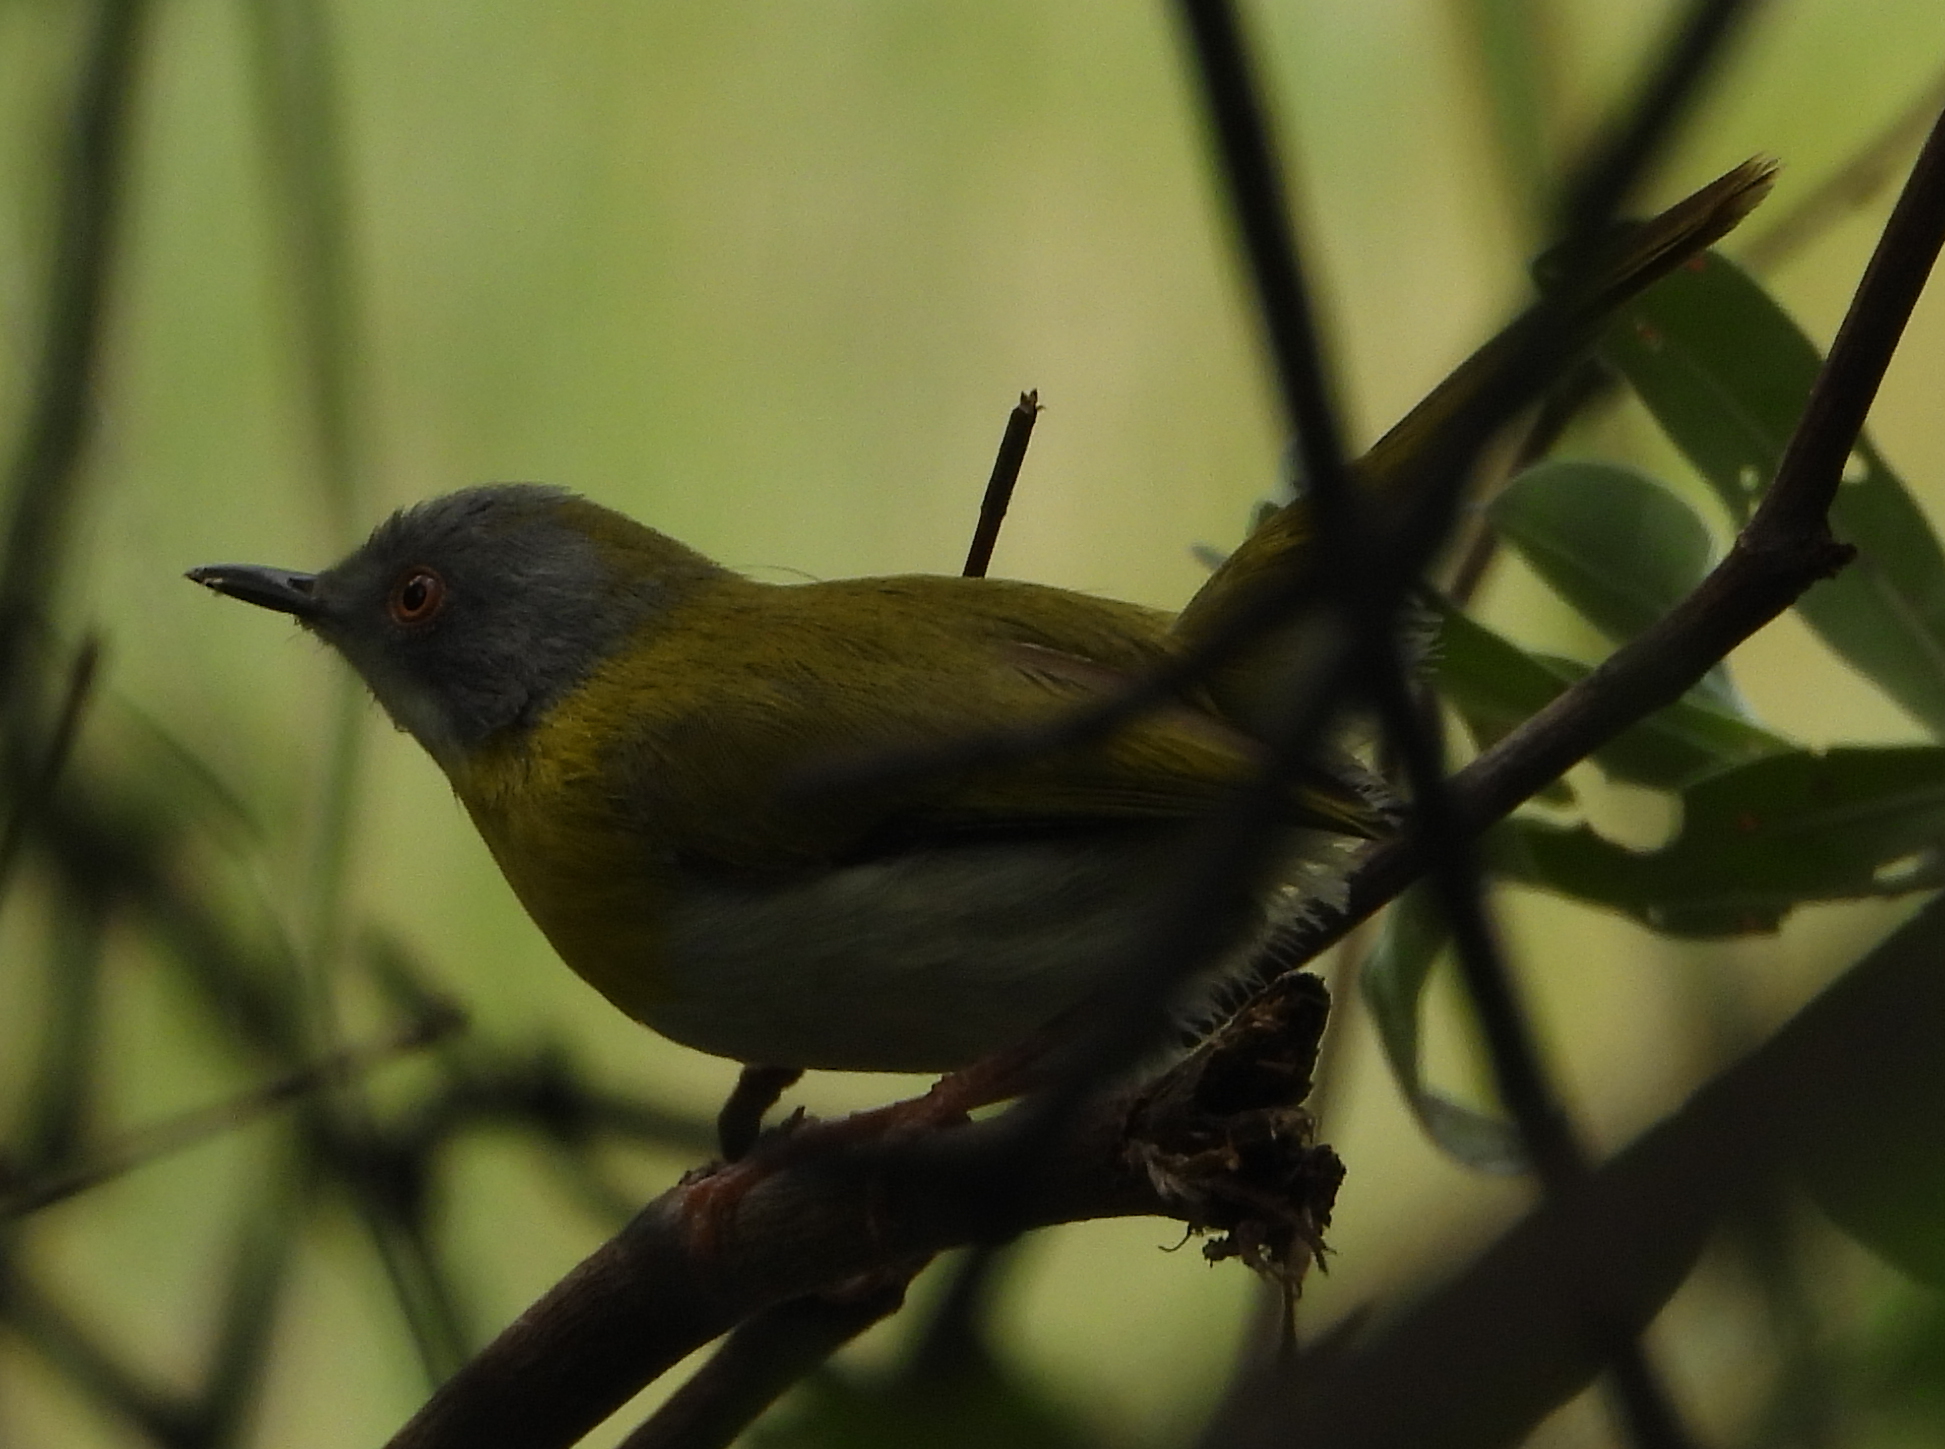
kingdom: Animalia
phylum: Chordata
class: Aves
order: Passeriformes
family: Cisticolidae
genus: Apalis
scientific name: Apalis flavida
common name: Yellow-breasted apalis
